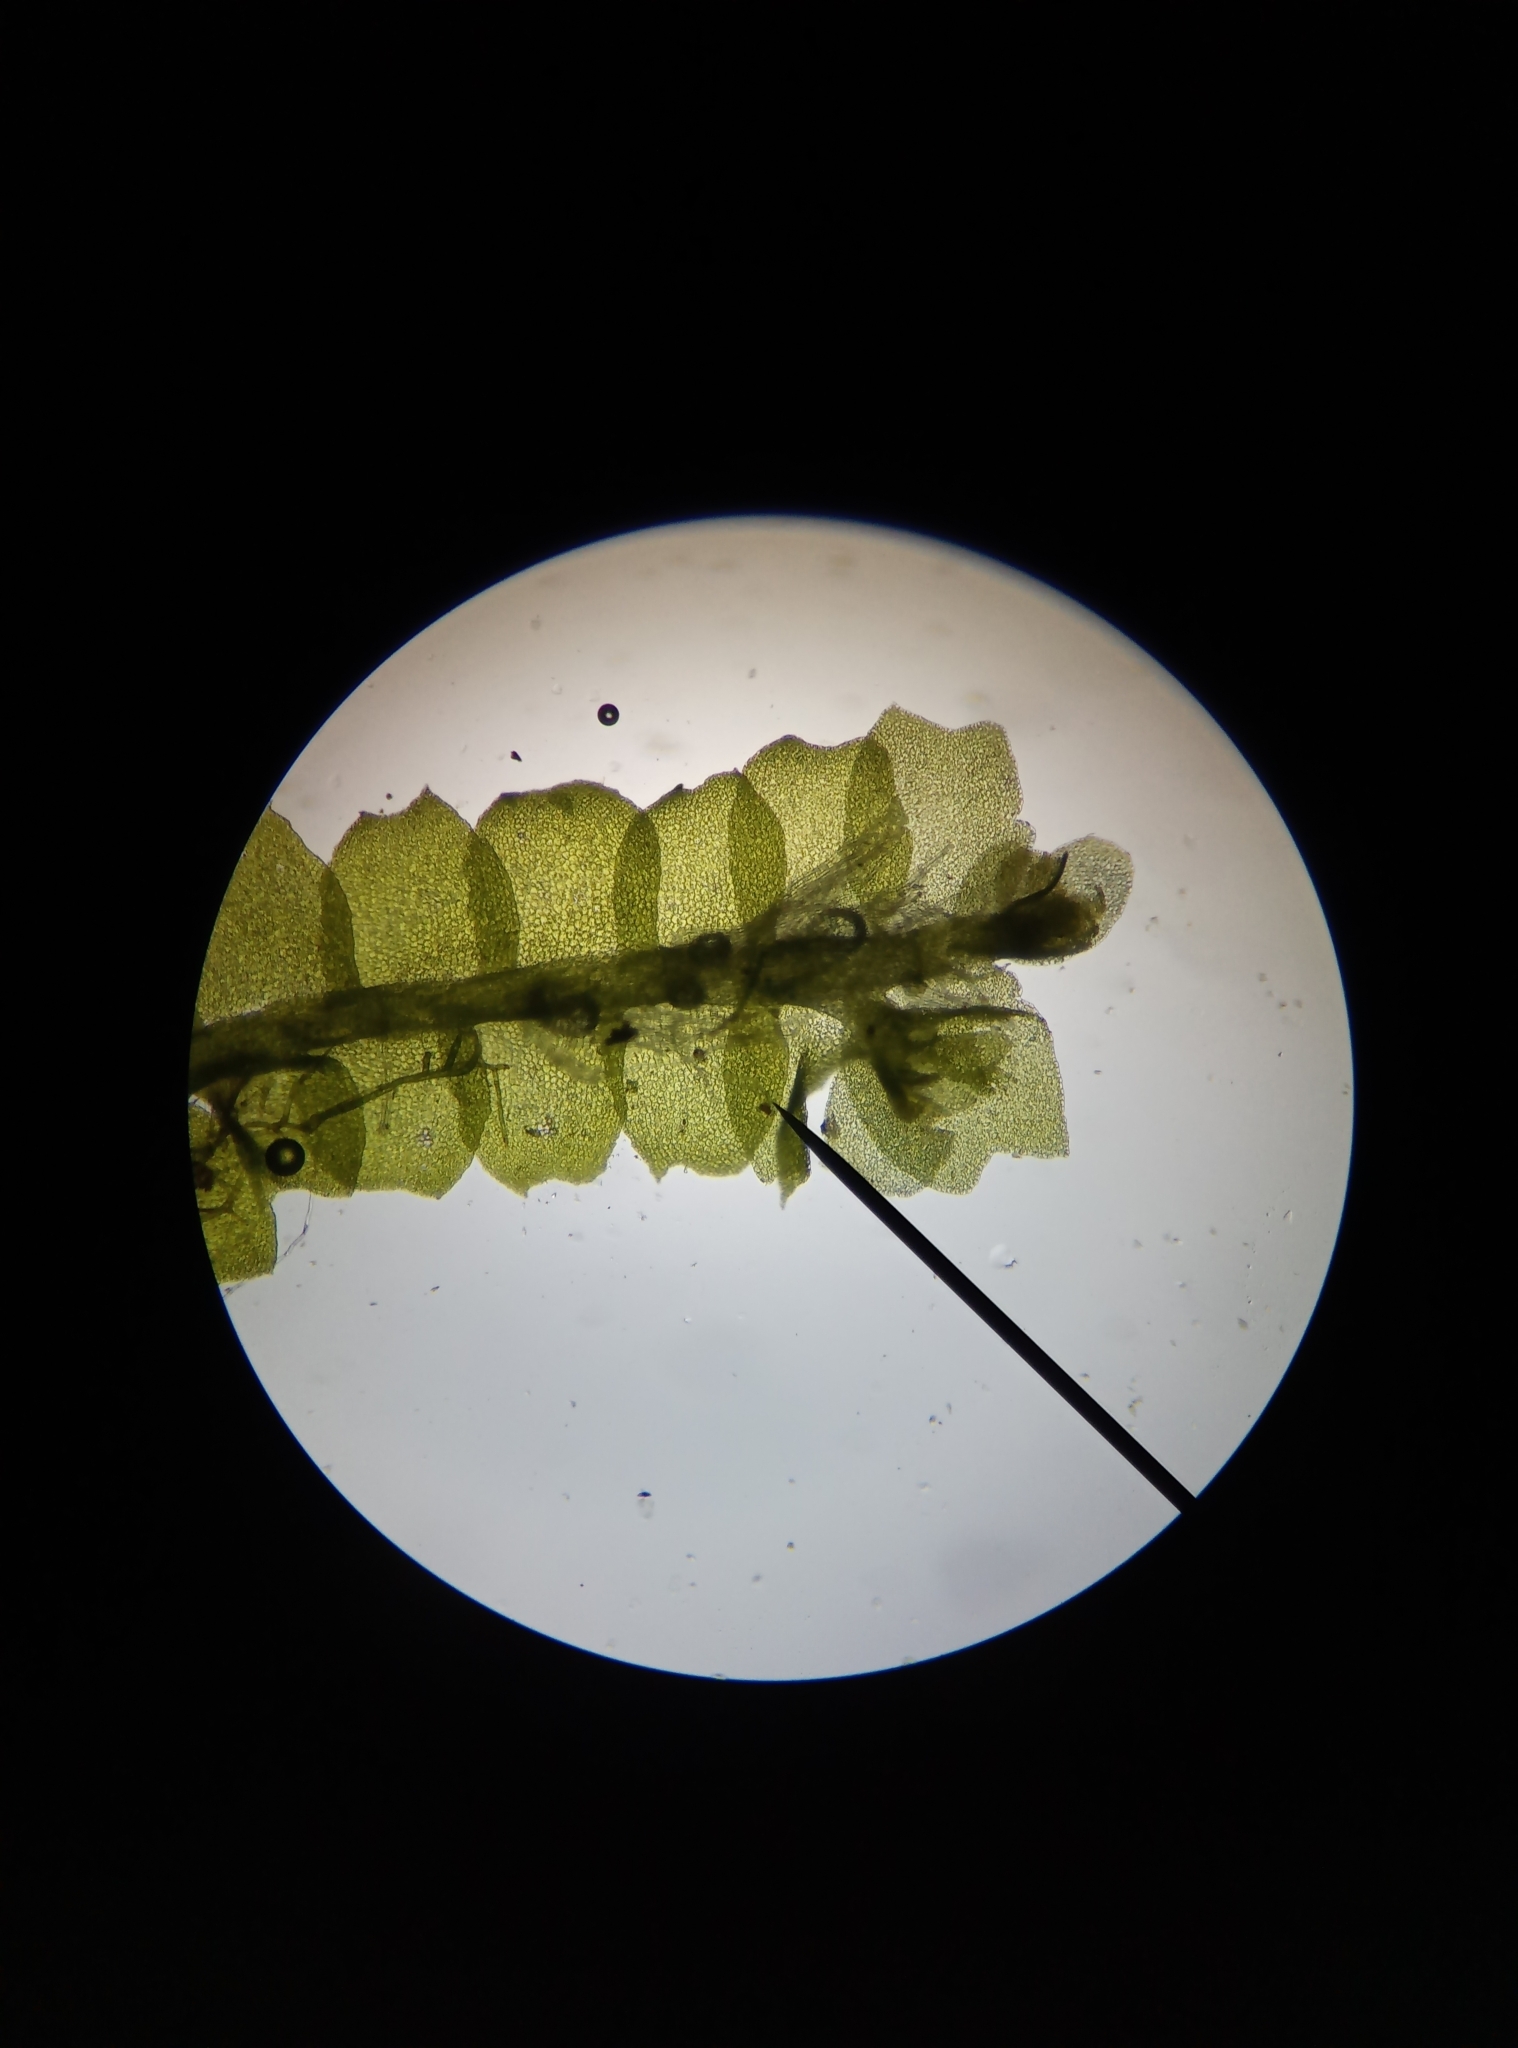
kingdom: Plantae
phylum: Marchantiophyta
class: Jungermanniopsida
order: Jungermanniales
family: Lophocoleaceae
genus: Lophocolea
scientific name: Lophocolea heterophylla
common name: Variable-leaved crestwort
